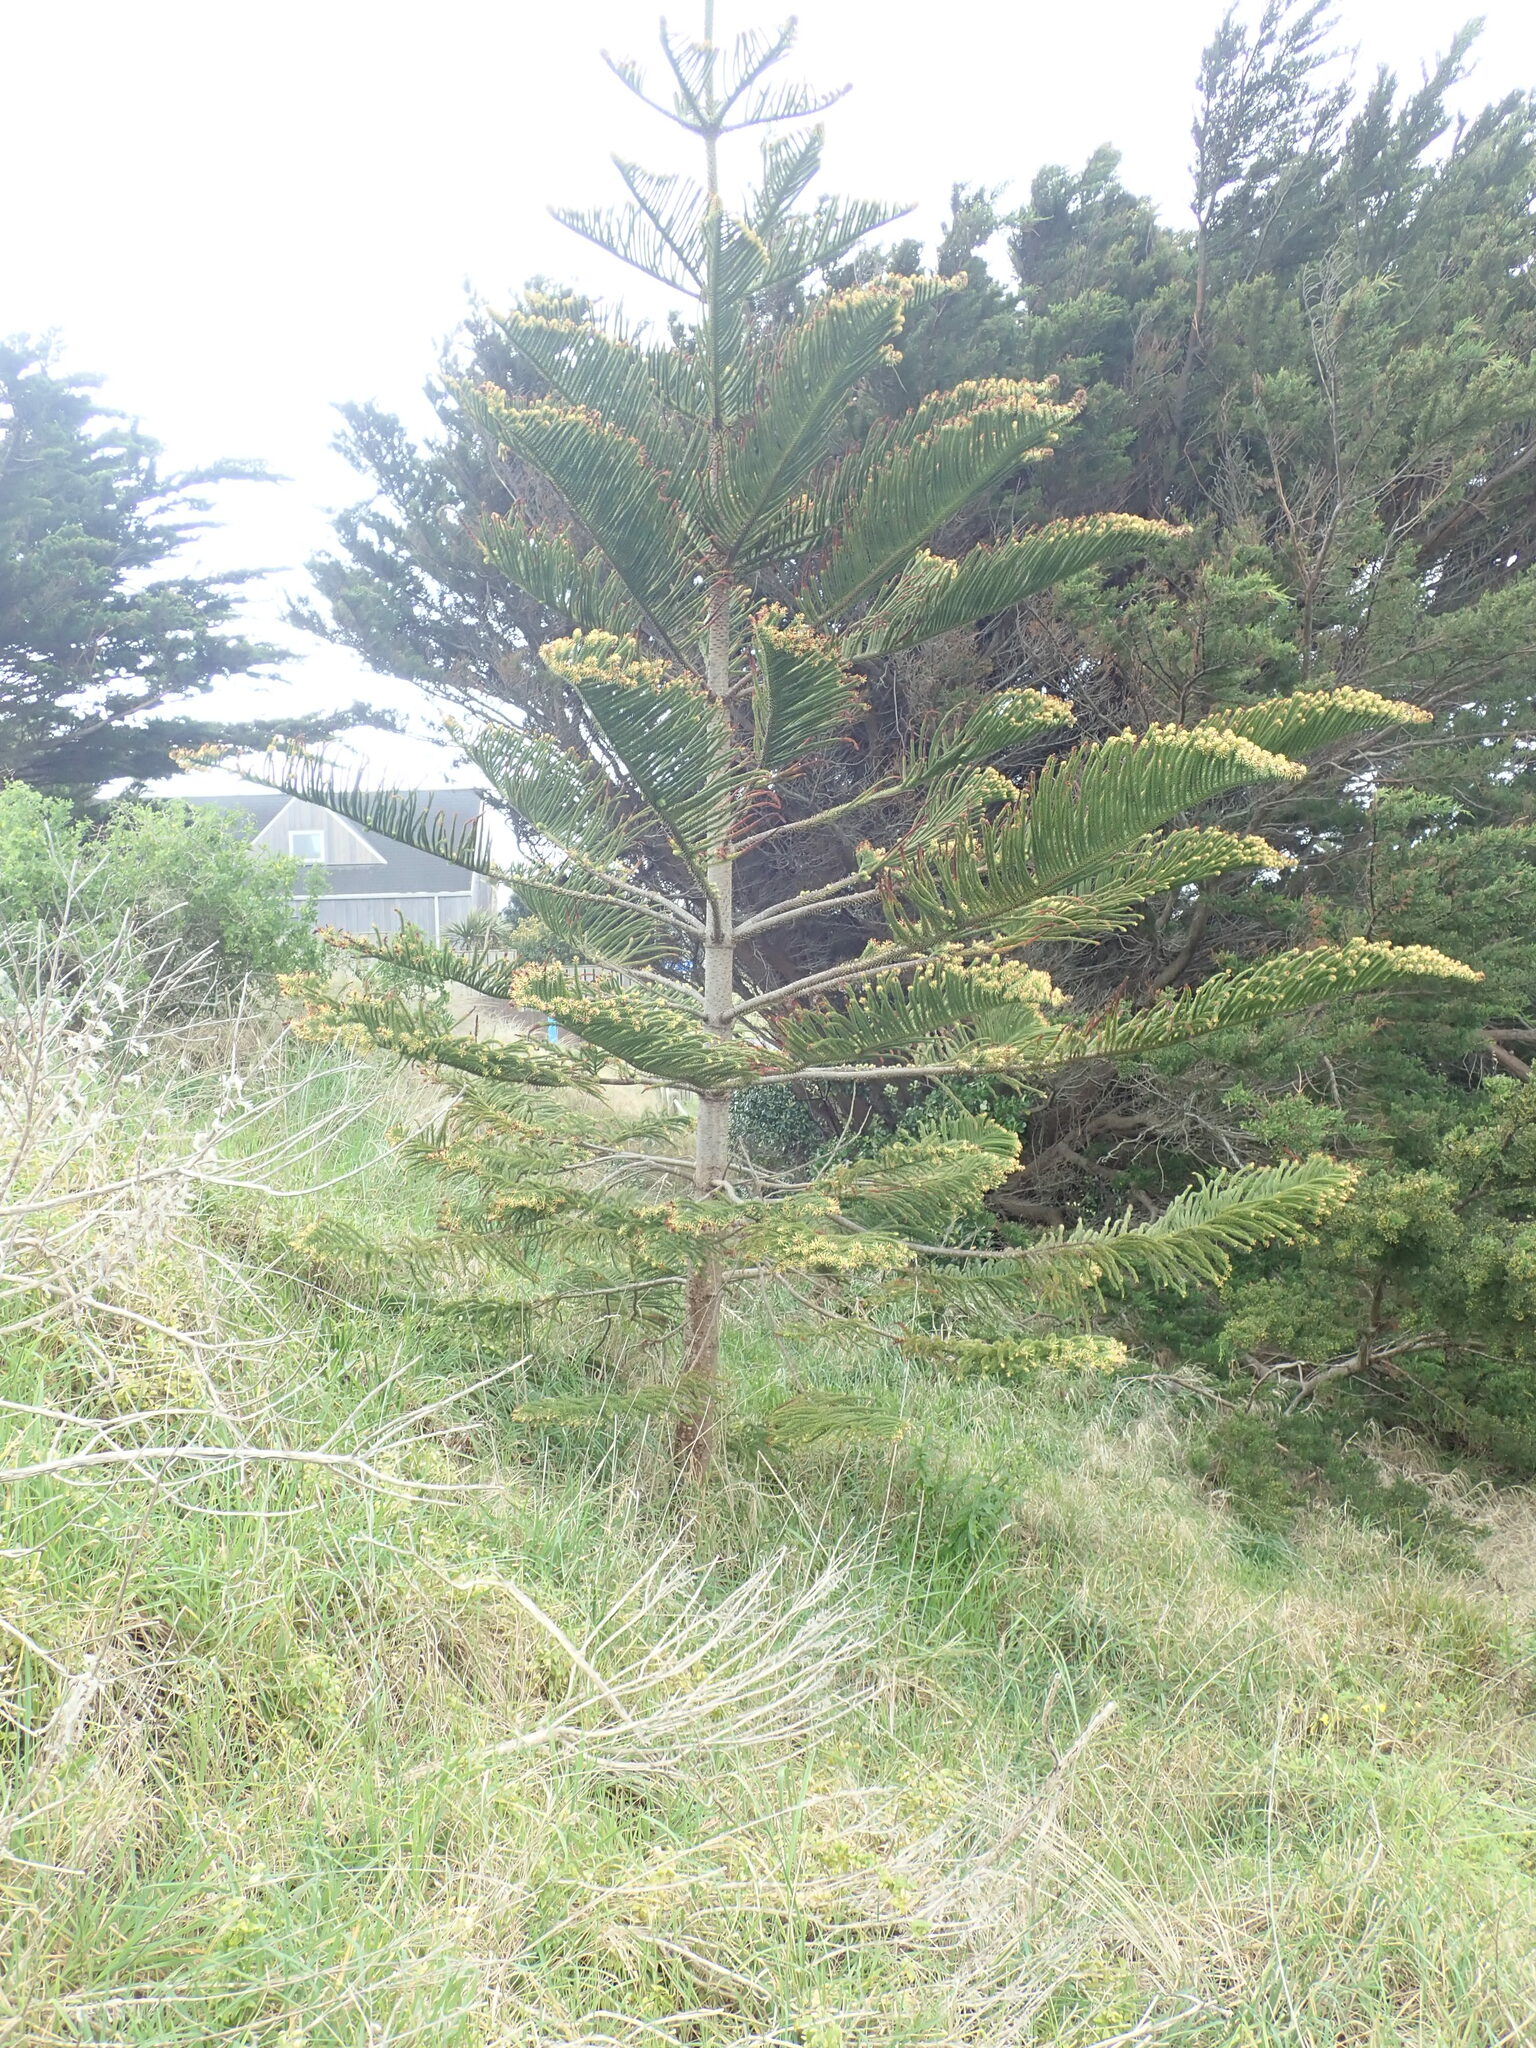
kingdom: Plantae
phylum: Tracheophyta
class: Pinopsida
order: Pinales
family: Araucariaceae
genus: Araucaria
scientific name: Araucaria heterophylla
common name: Norfolk island pine
